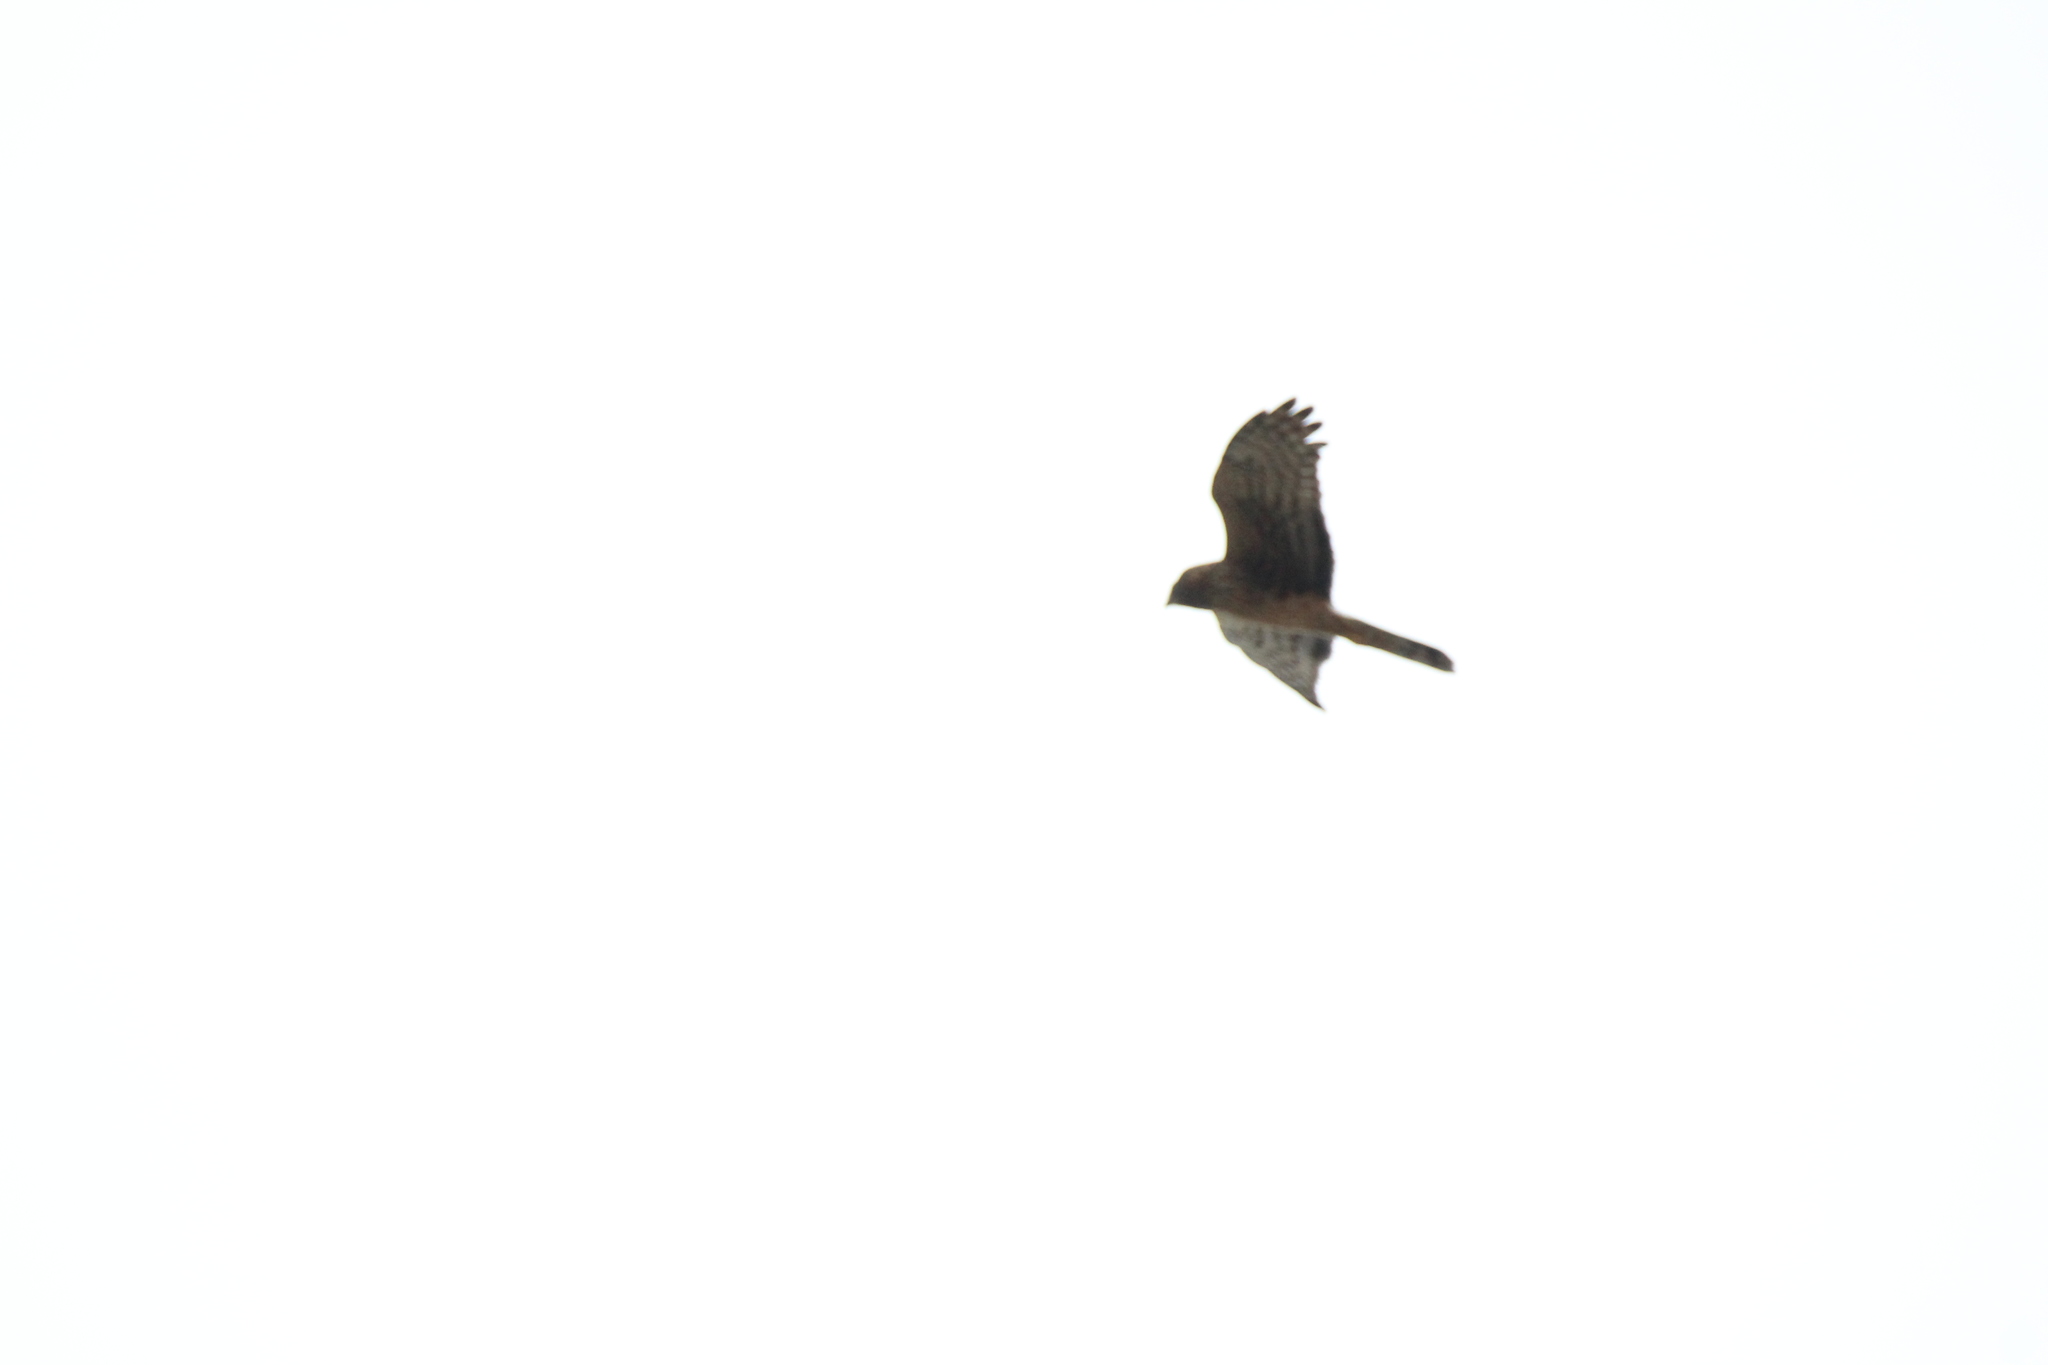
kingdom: Animalia
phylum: Chordata
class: Aves
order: Accipitriformes
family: Accipitridae
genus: Circus
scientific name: Circus cyaneus
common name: Hen harrier
